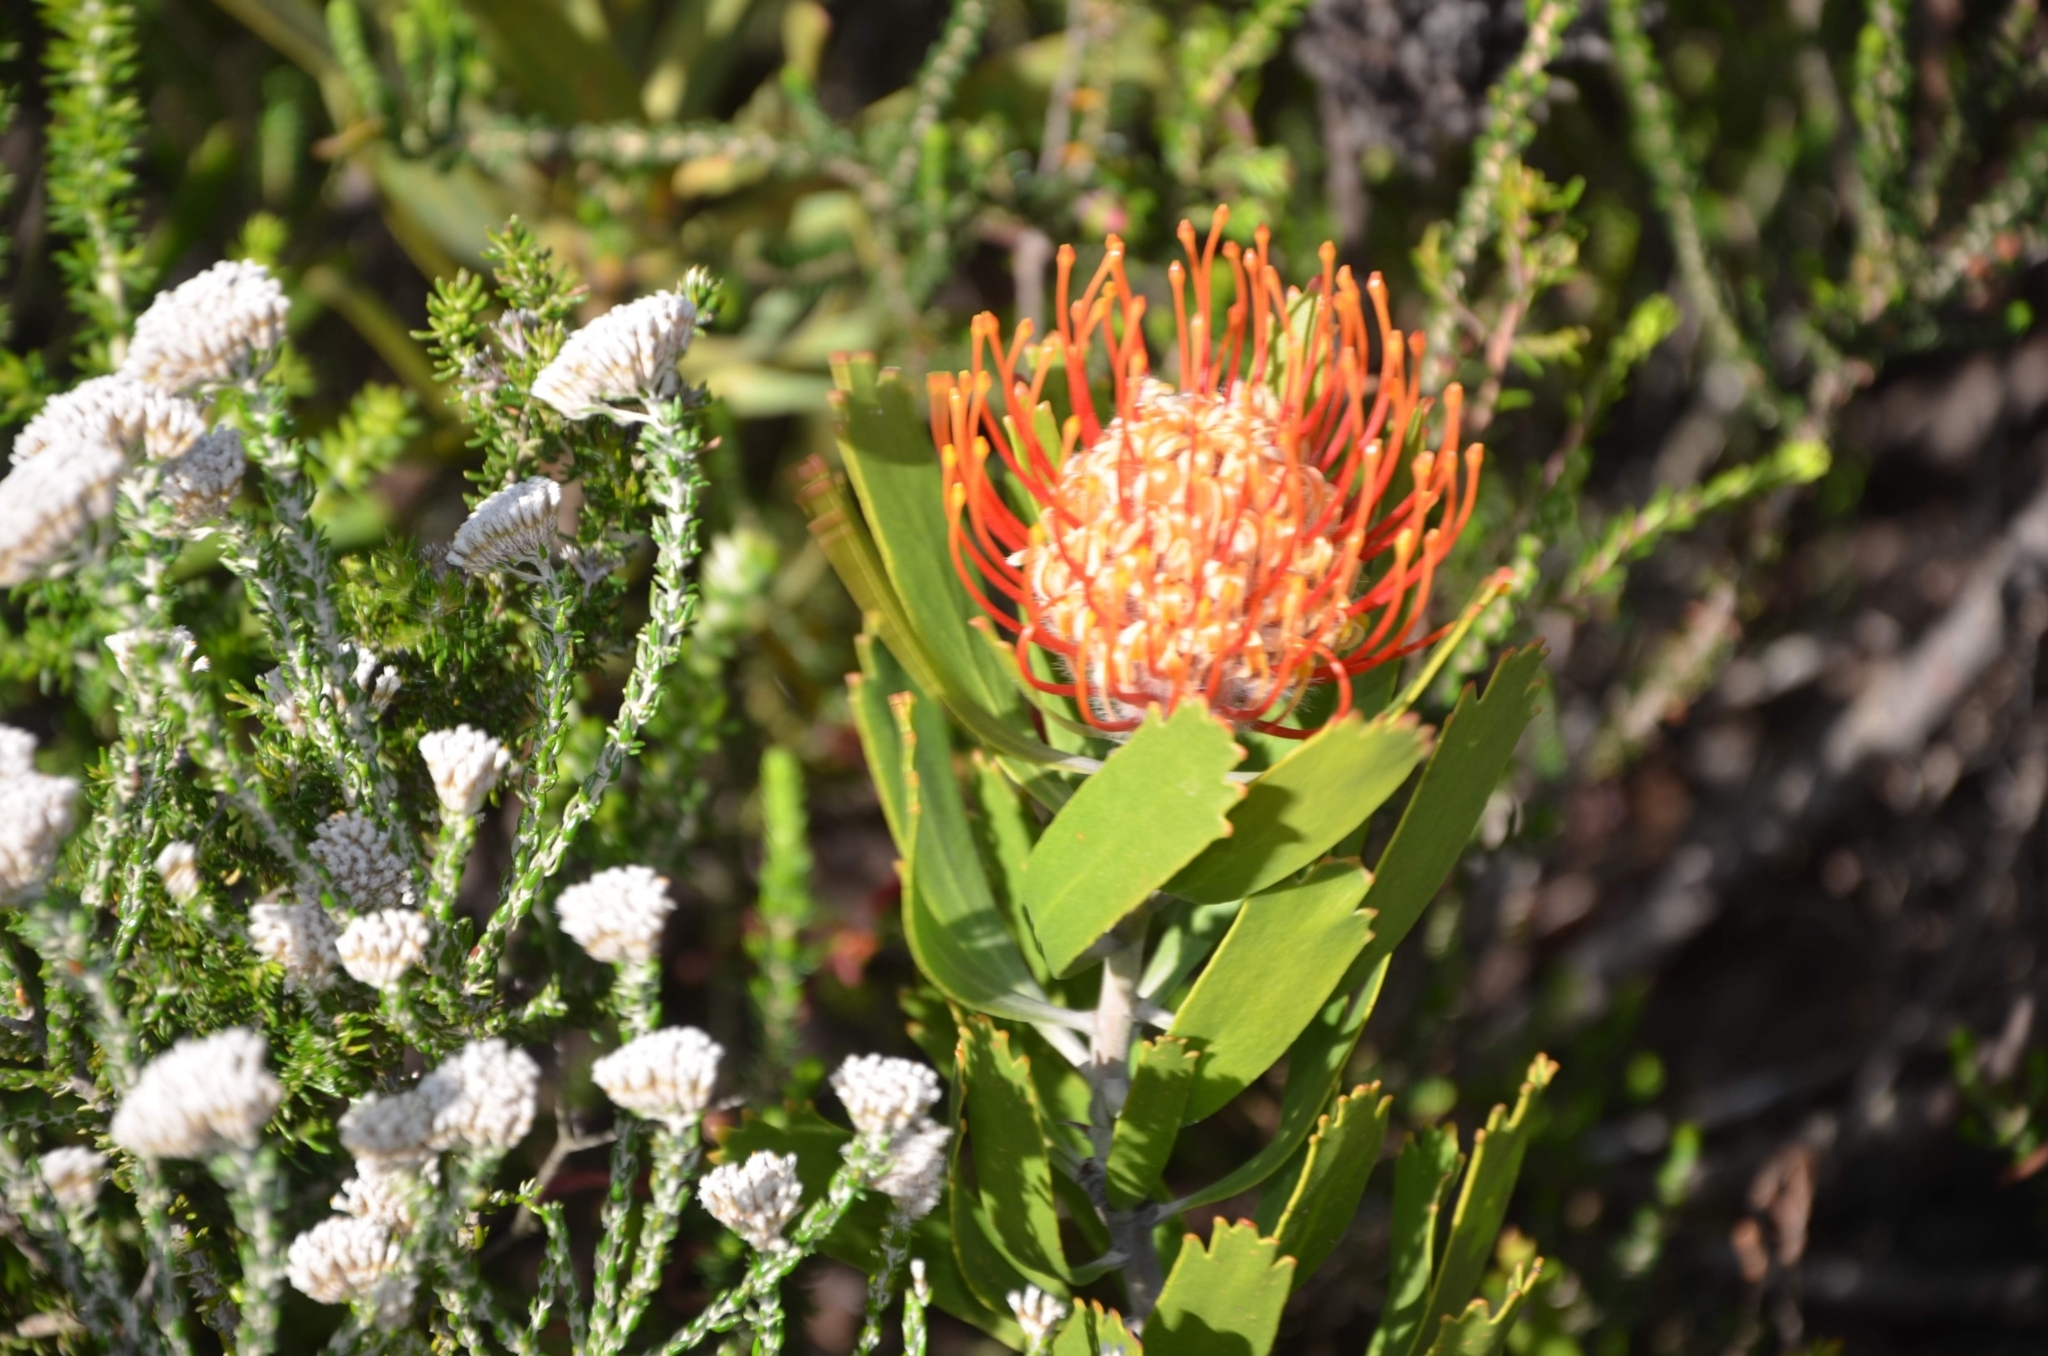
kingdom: Plantae
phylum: Tracheophyta
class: Magnoliopsida
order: Proteales
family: Proteaceae
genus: Leucospermum
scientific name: Leucospermum cuneiforme
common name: Common pincushion
